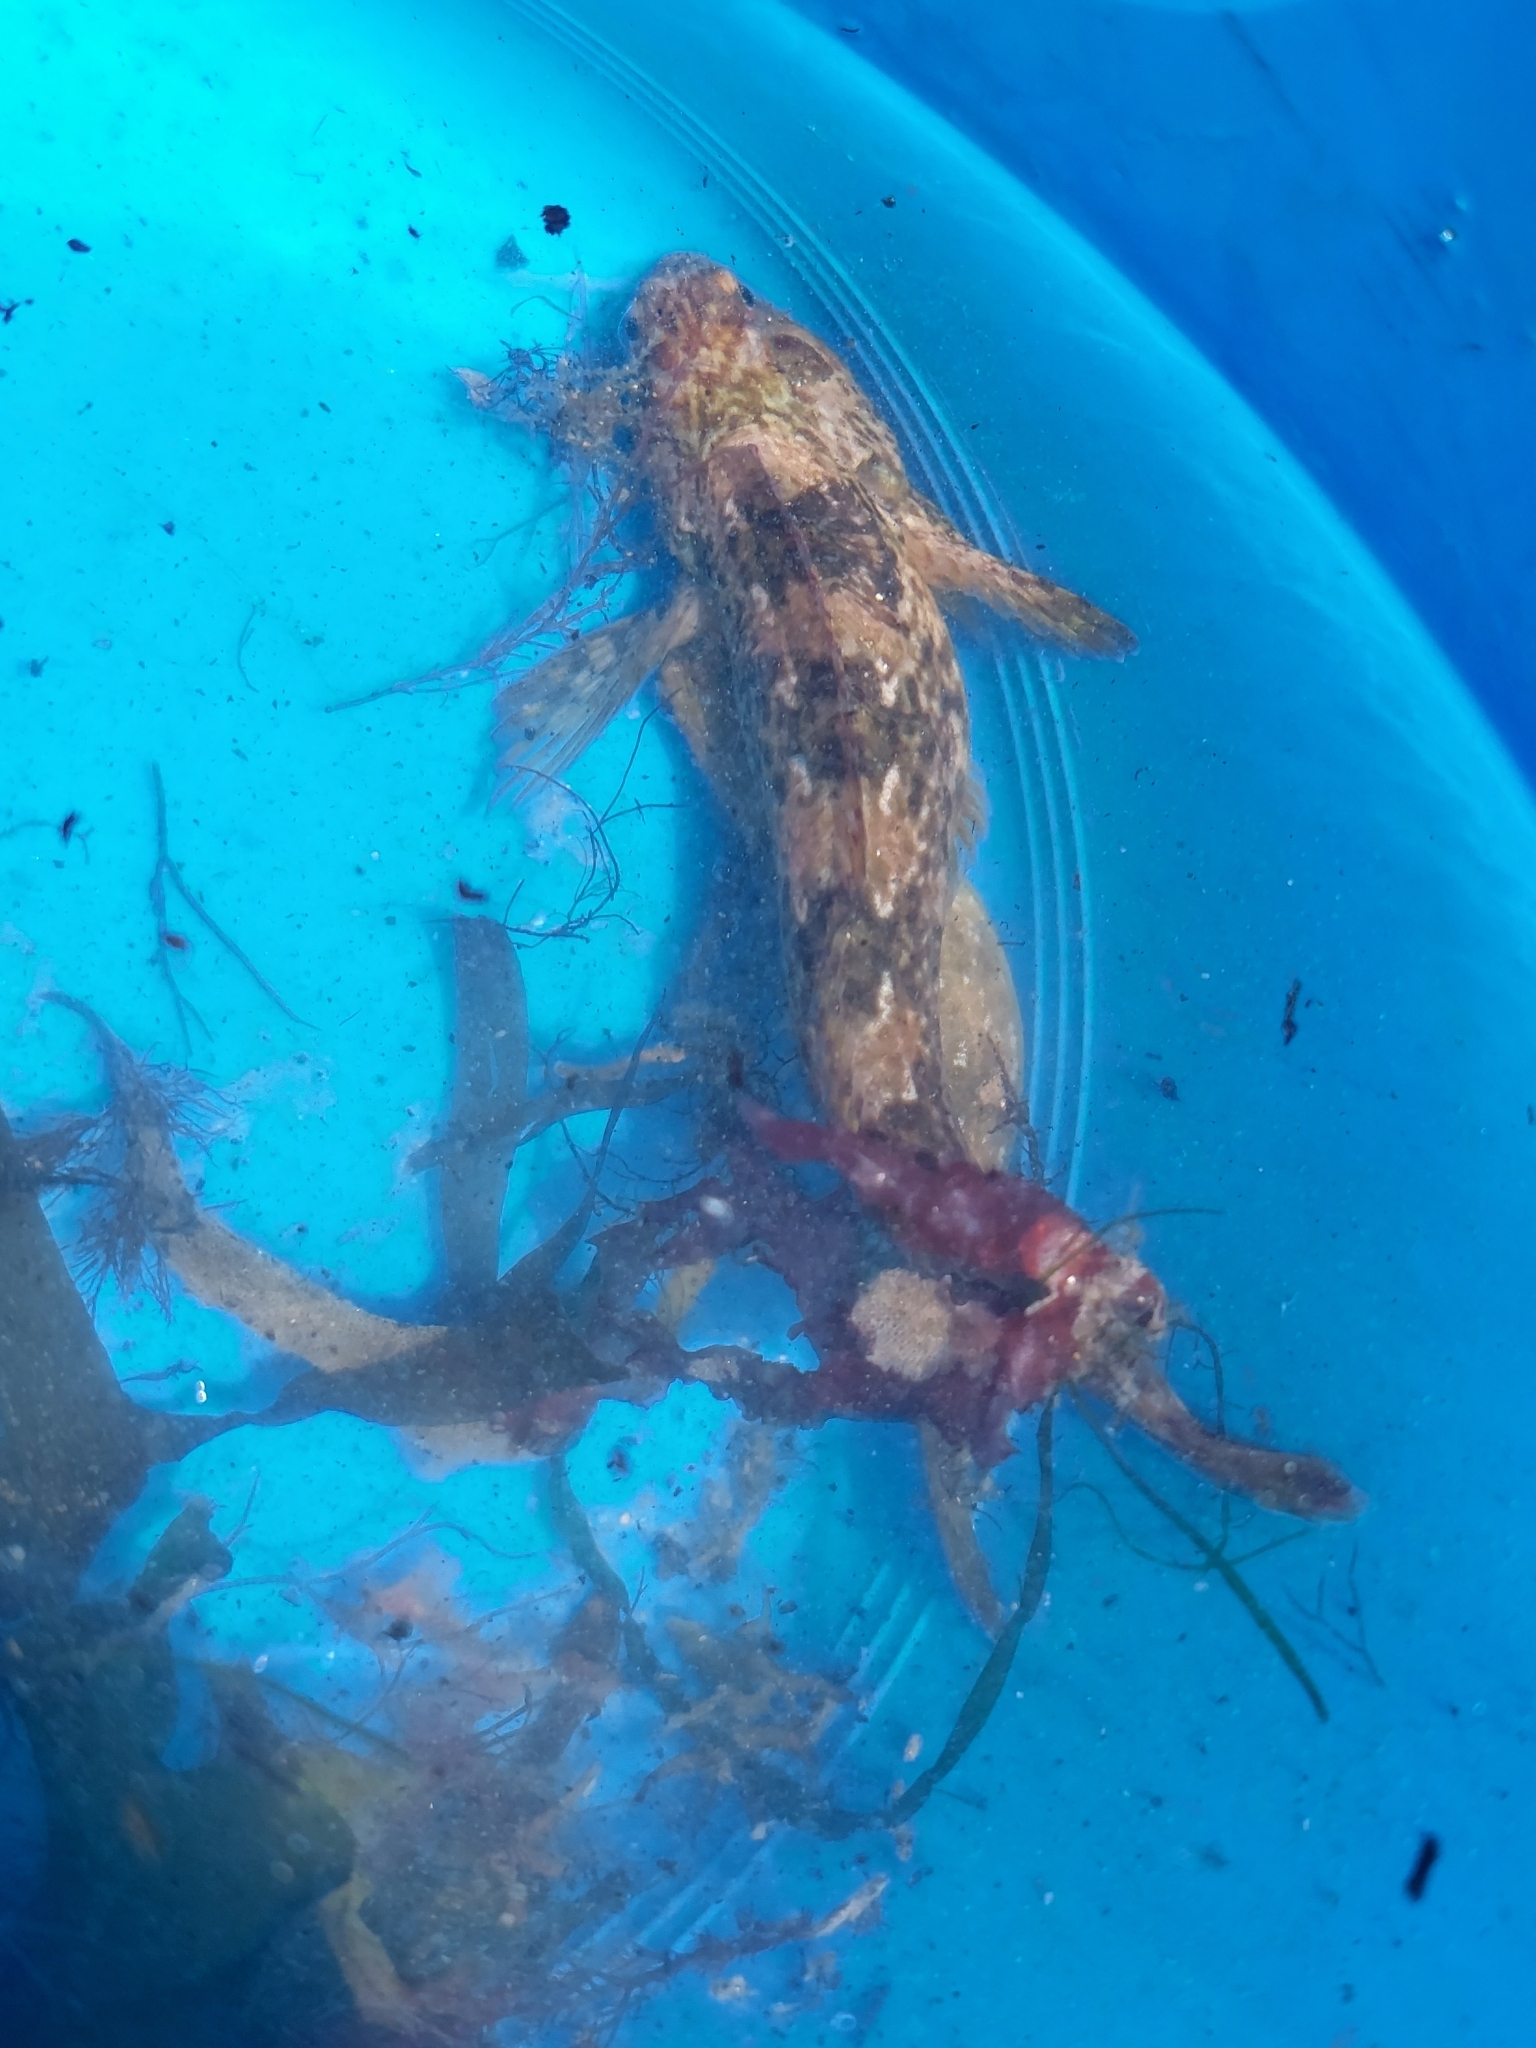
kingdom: Animalia
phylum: Chordata
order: Perciformes
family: Blenniidae
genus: Lipophrys
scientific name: Lipophrys pholis
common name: Shanny
